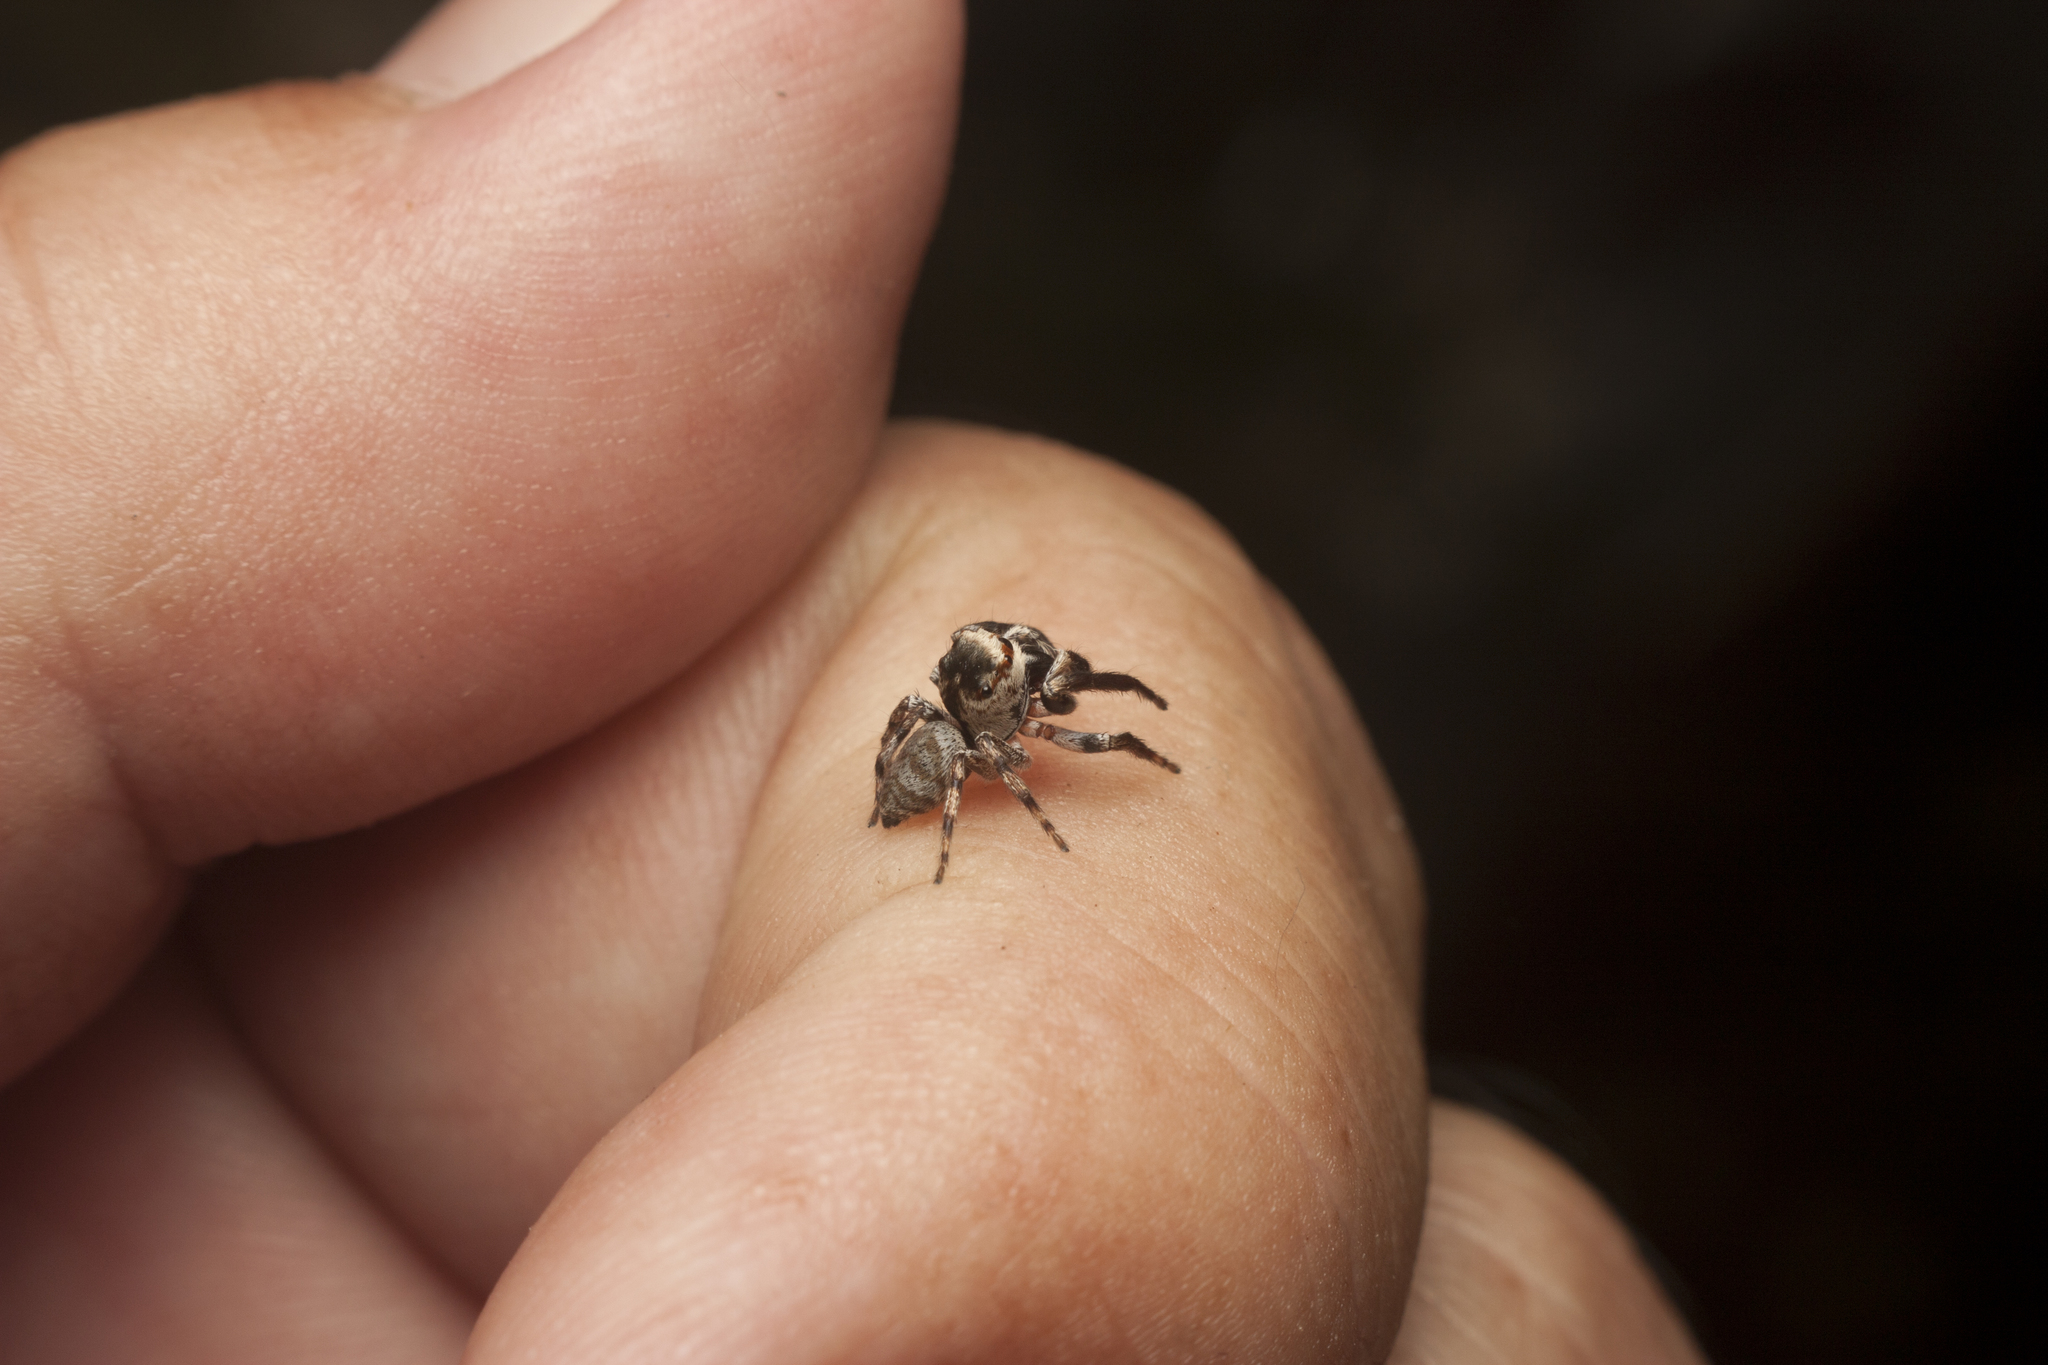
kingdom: Animalia
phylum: Arthropoda
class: Arachnida
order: Araneae
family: Salticidae
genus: Euryattus
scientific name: Euryattus bleekeri
